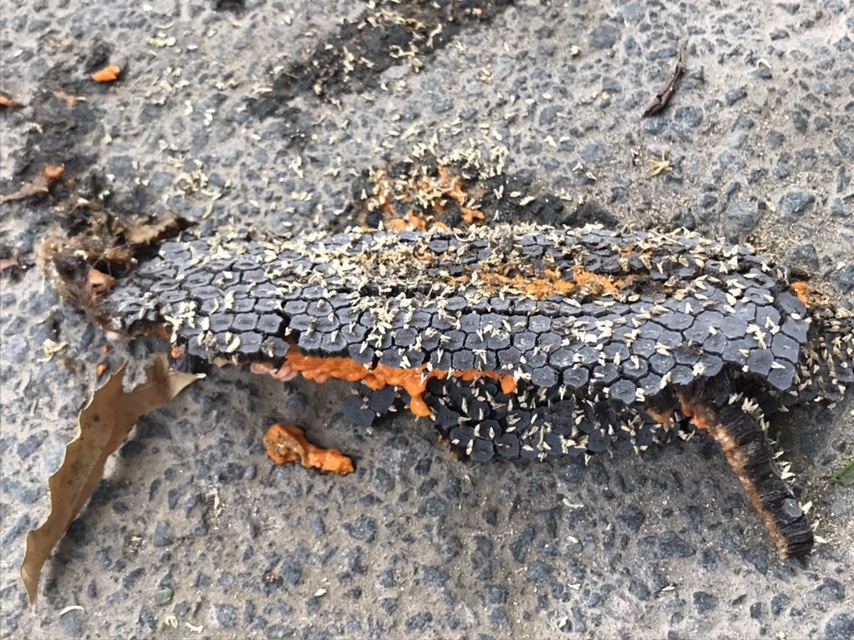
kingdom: Plantae
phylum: Tracheophyta
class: Liliopsida
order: Alismatales
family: Araceae
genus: Epipremnum
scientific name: Epipremnum pinnatum
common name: Centipede tongavine
